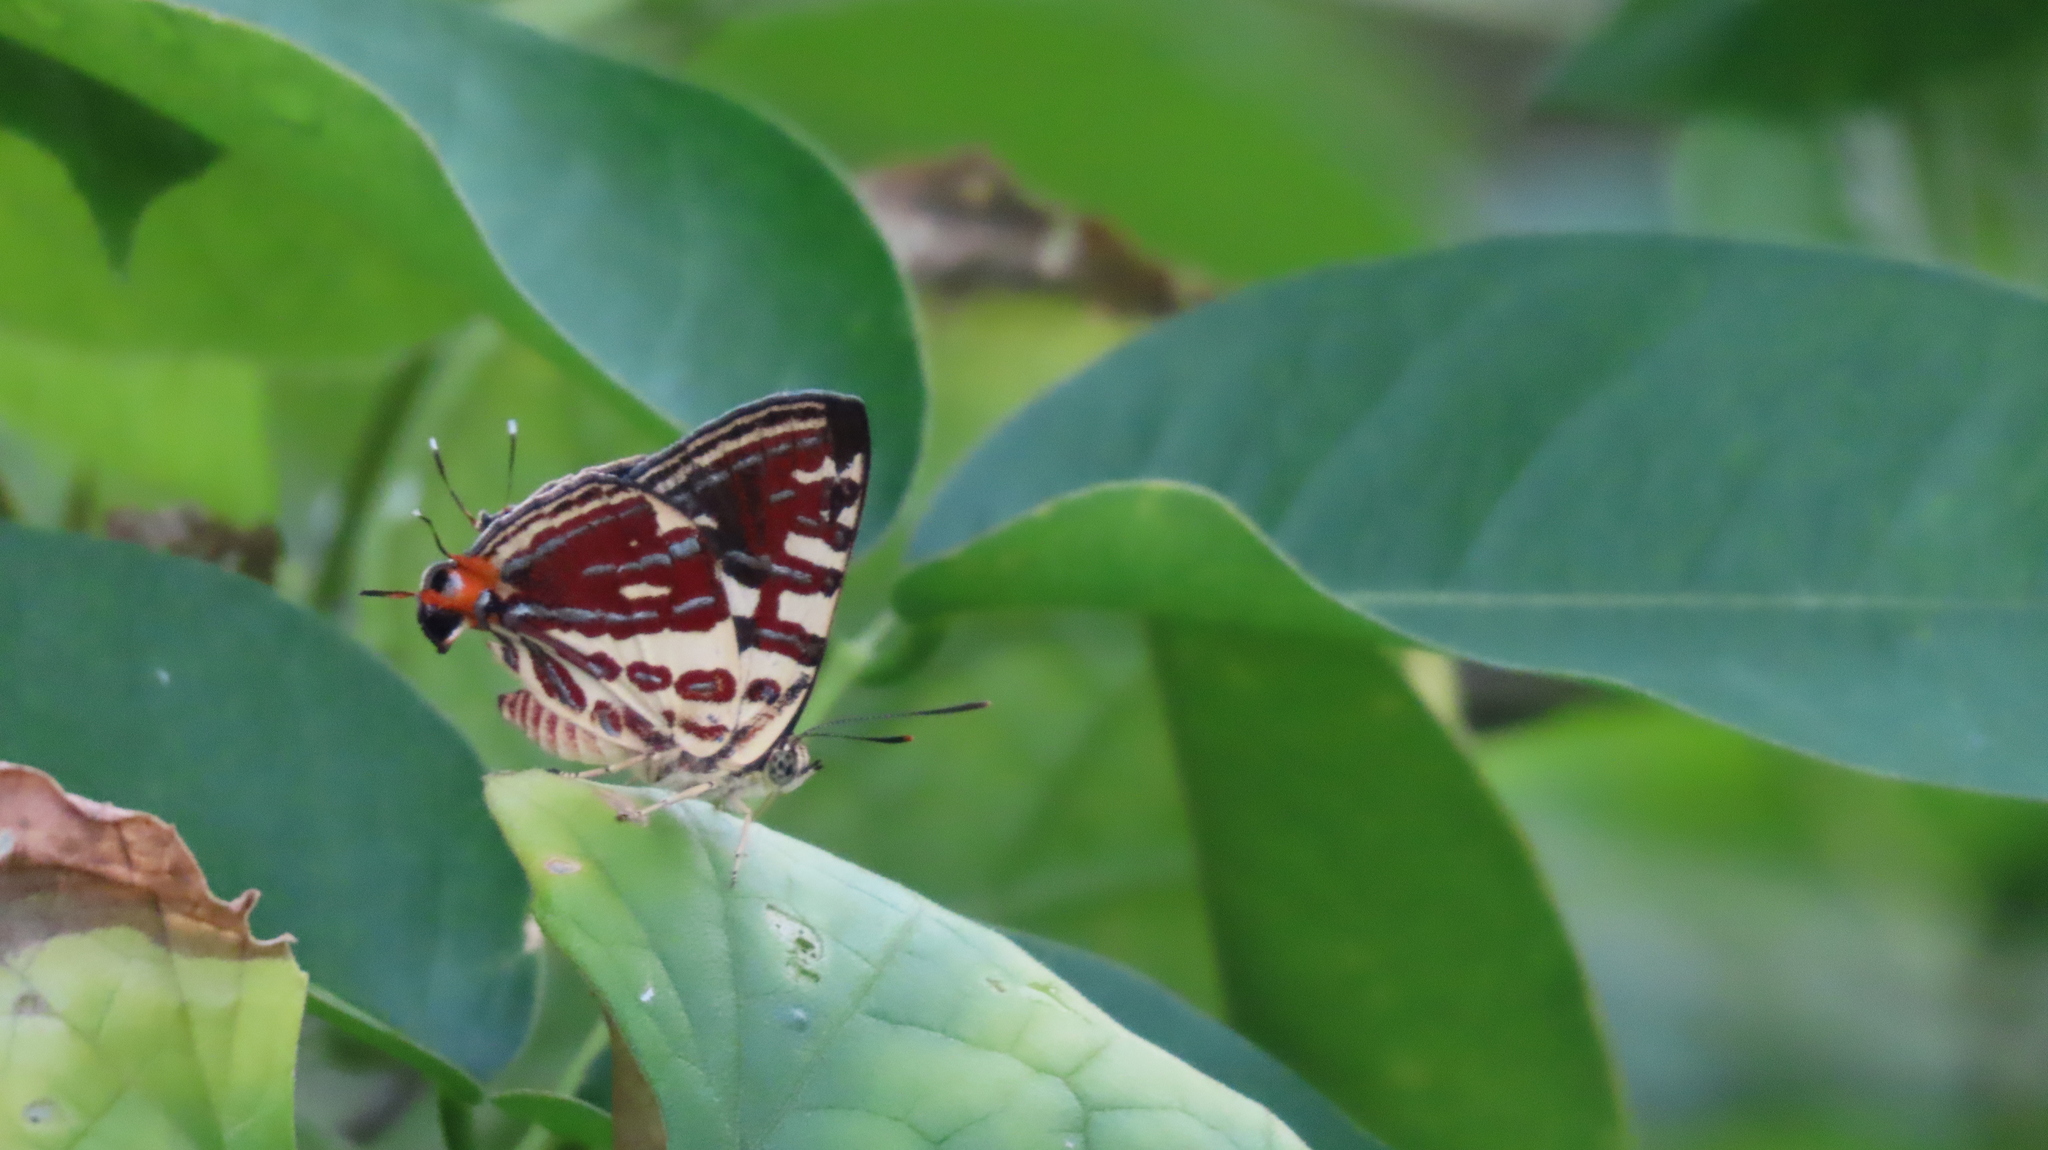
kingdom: Animalia
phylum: Arthropoda
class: Insecta
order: Lepidoptera
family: Lycaenidae
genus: Cigaritis
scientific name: Cigaritis lohita
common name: Long-banded silverline
